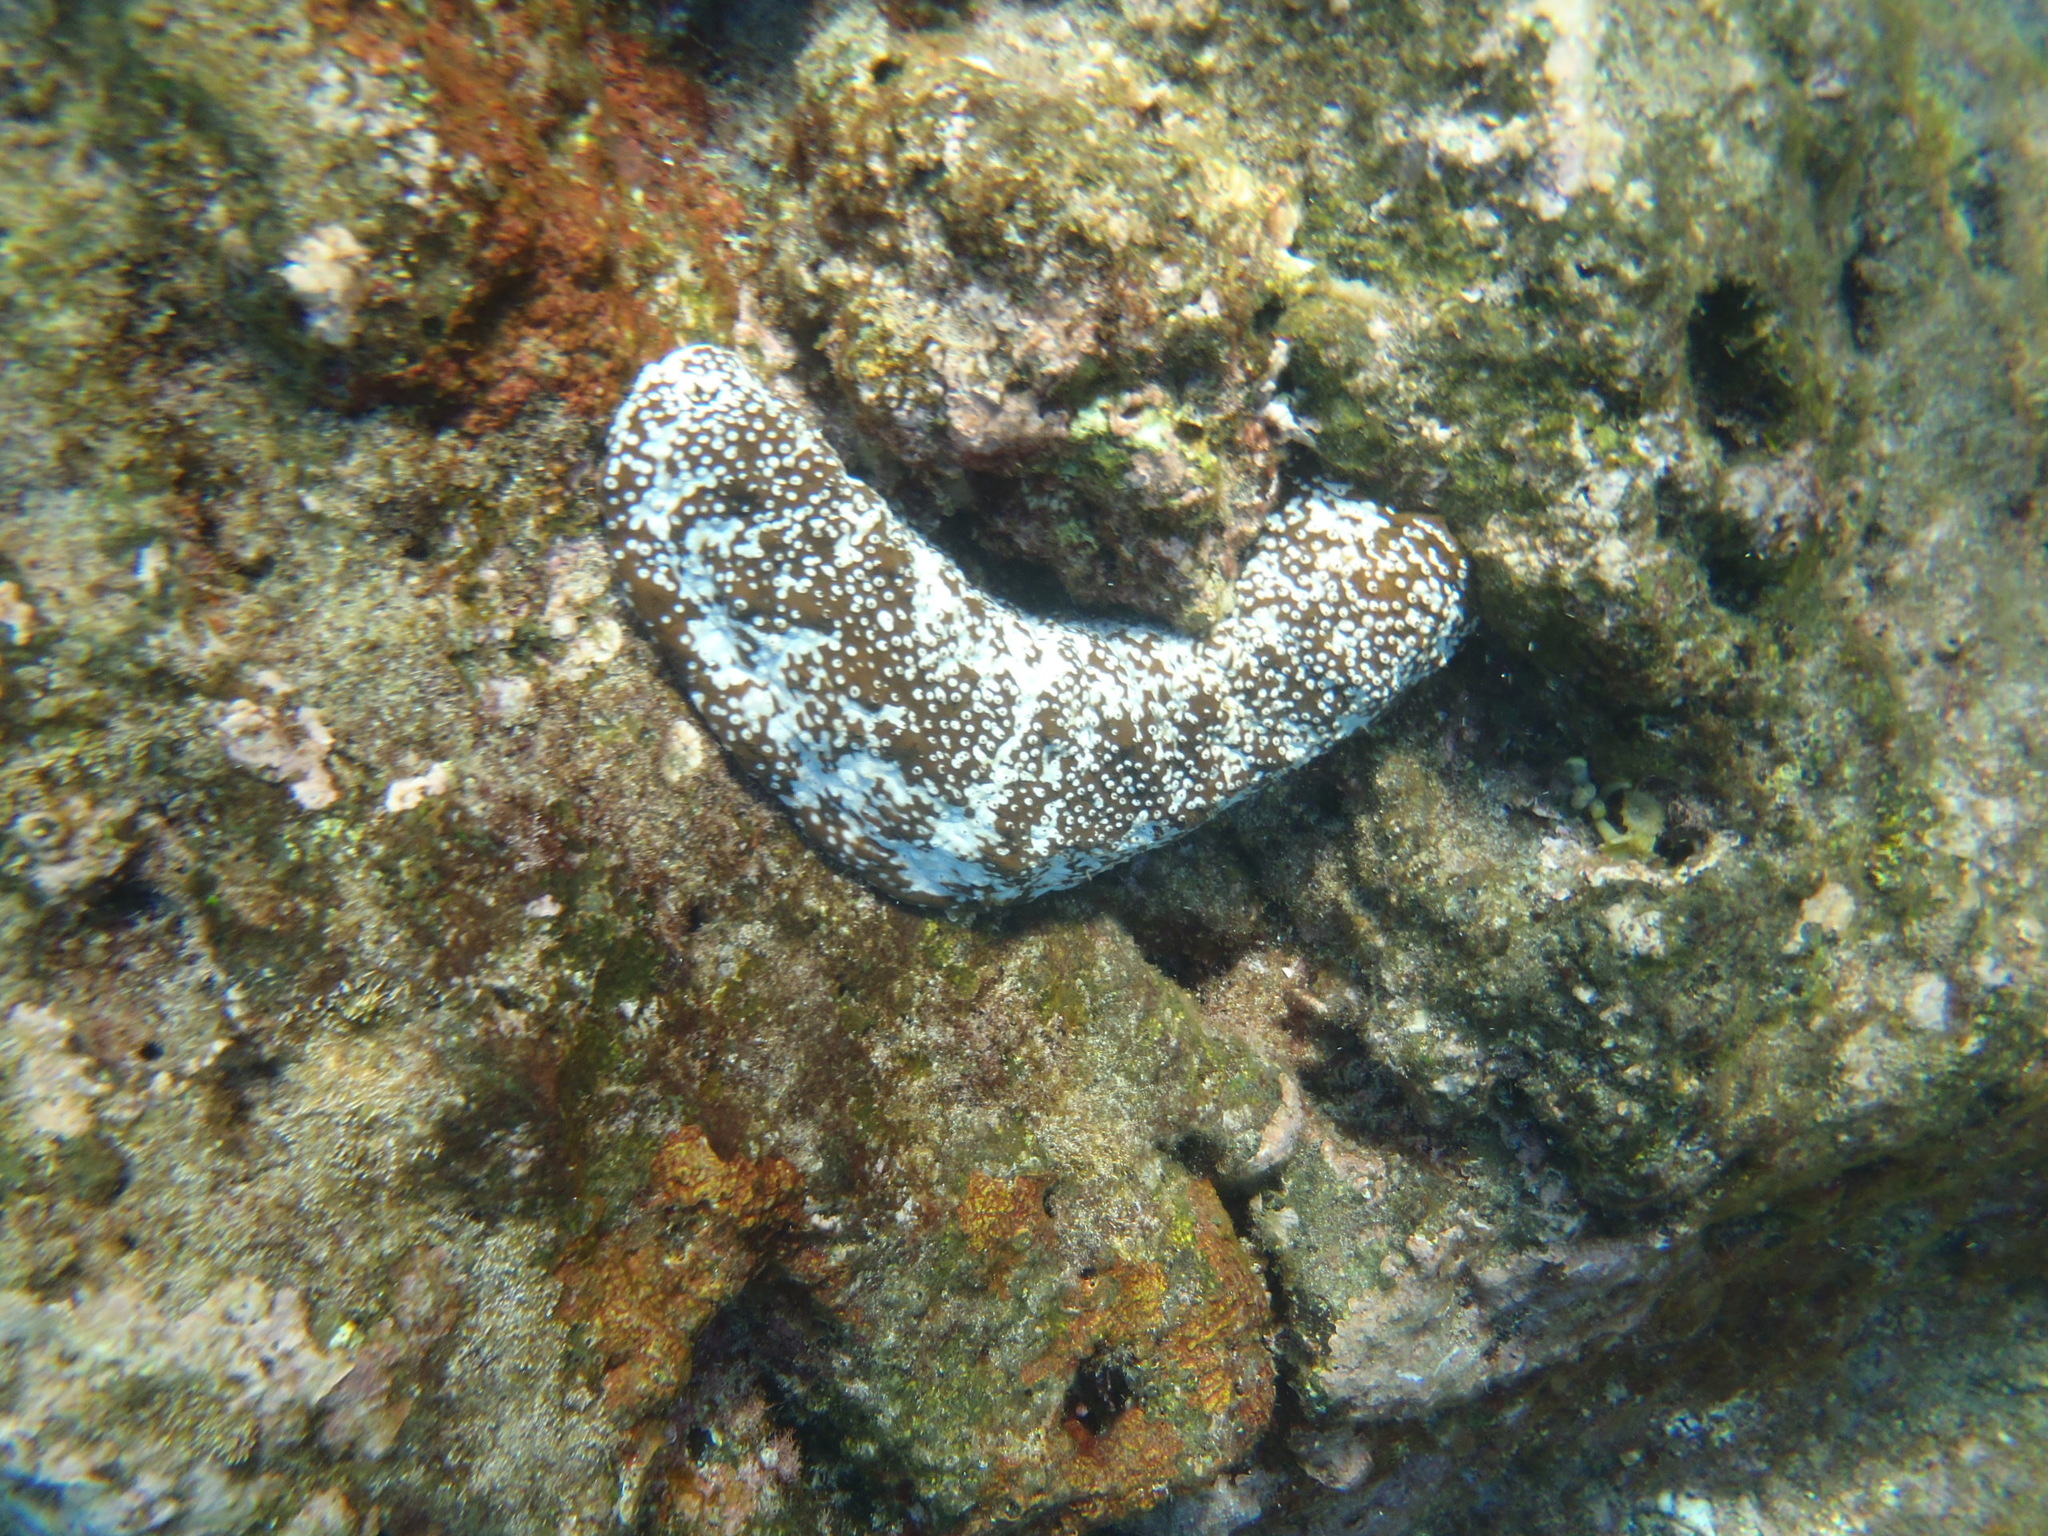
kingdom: Animalia
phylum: Echinodermata
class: Holothuroidea
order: Holothuriida
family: Holothuriidae
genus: Actinopyga
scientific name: Actinopyga varians
